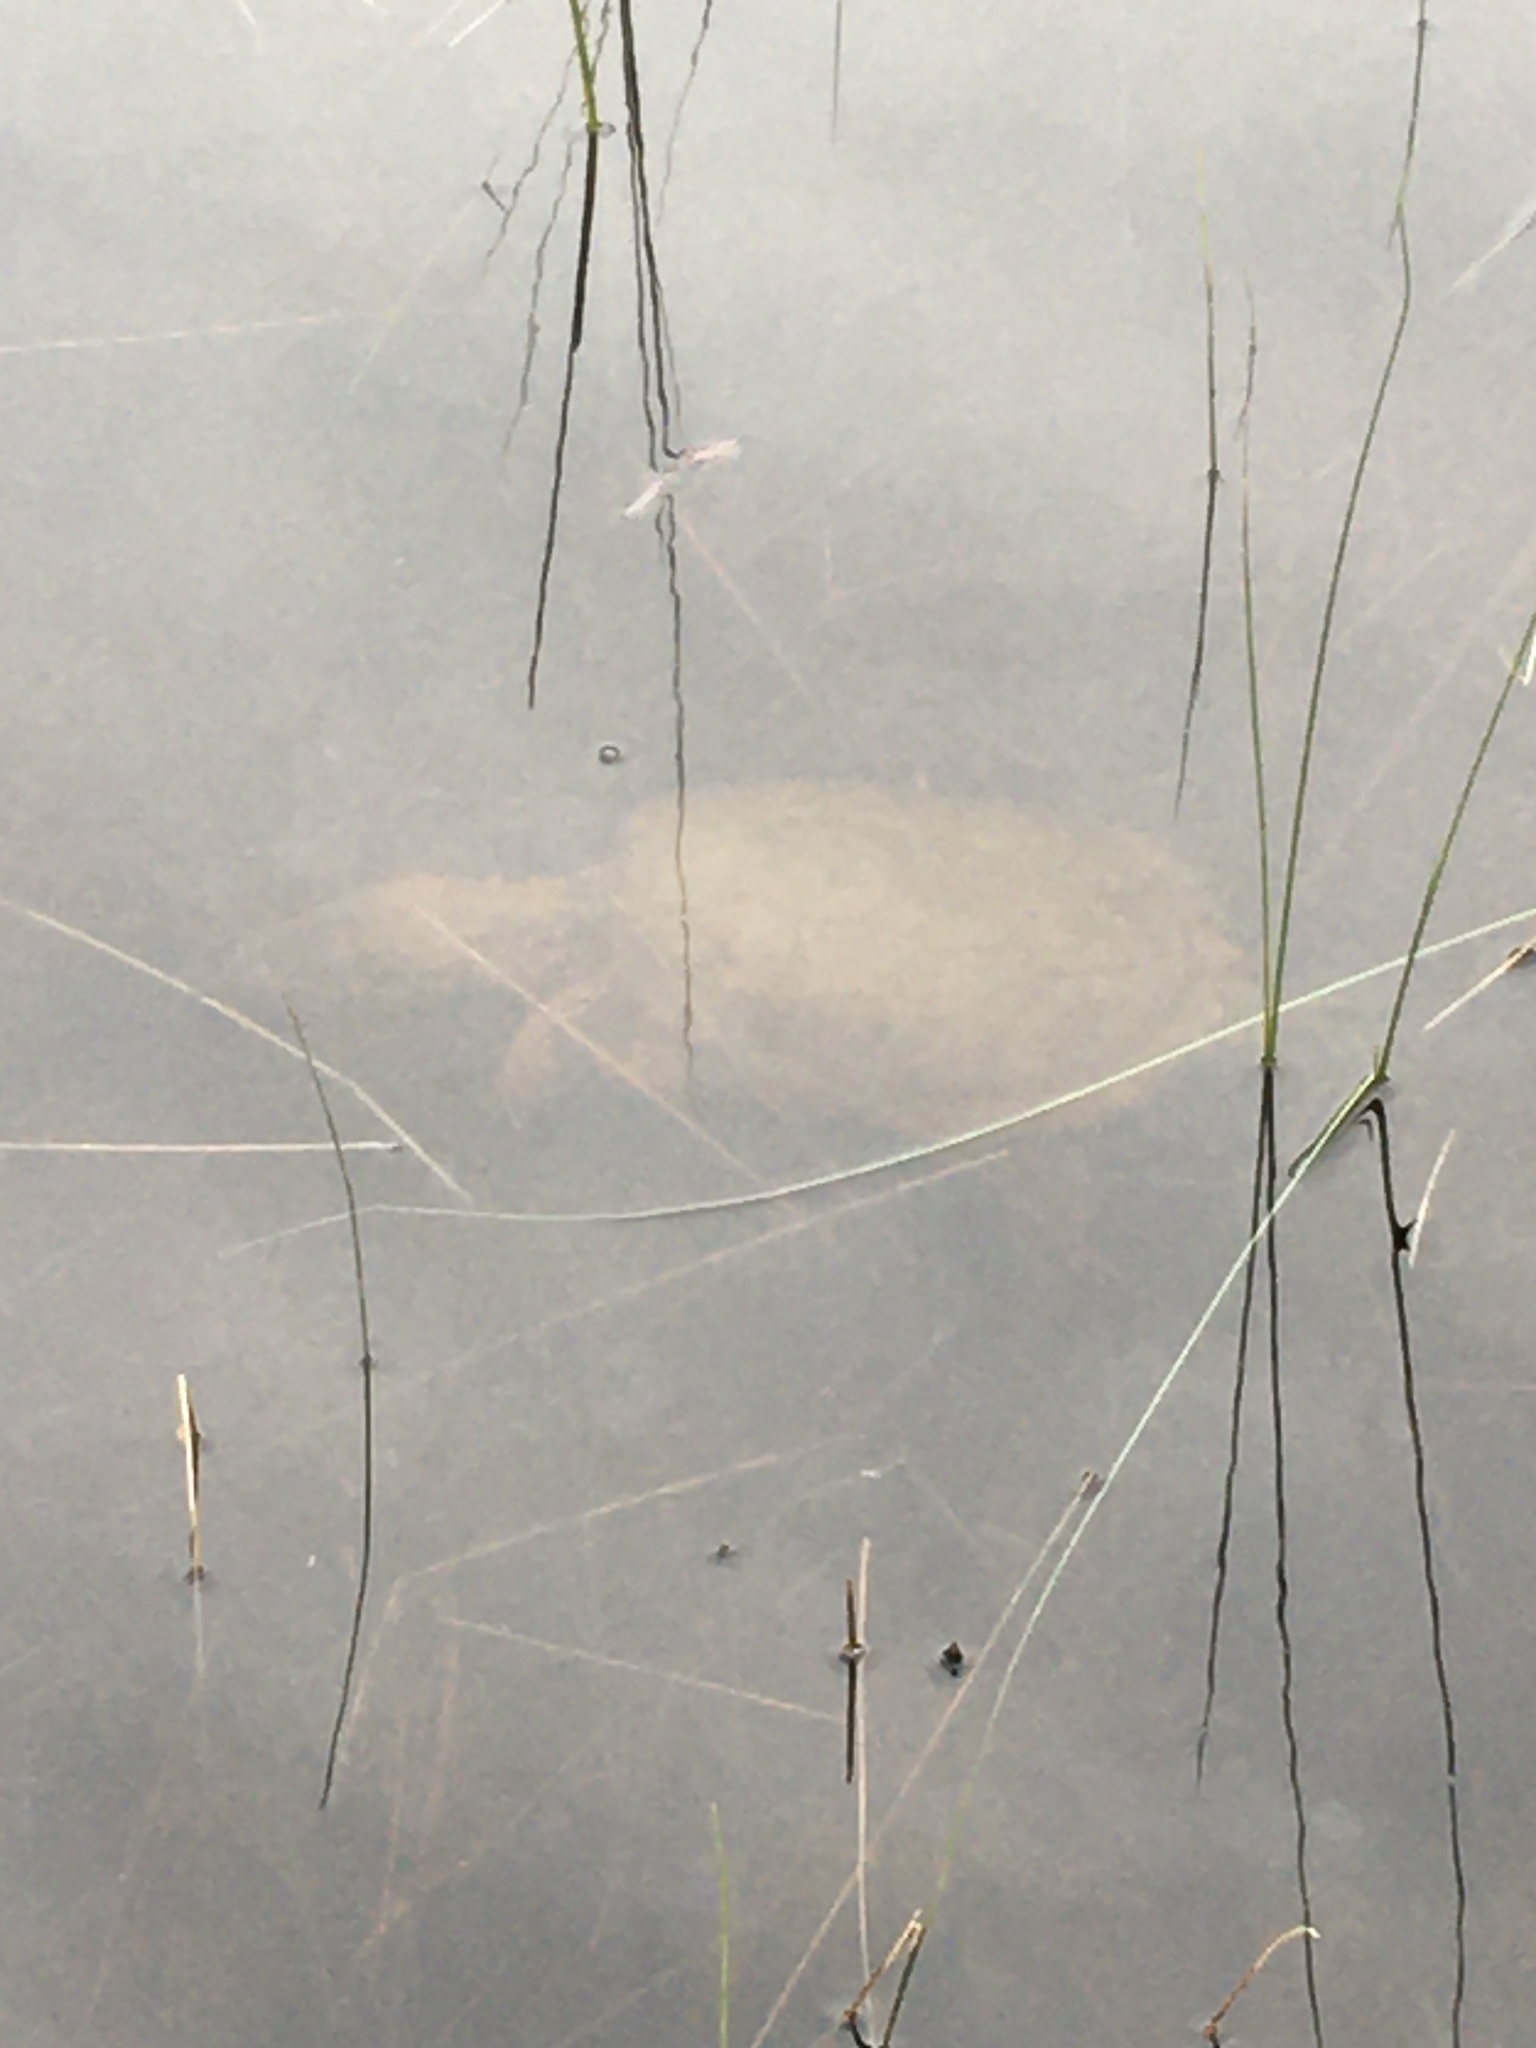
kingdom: Animalia
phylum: Chordata
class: Testudines
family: Chelydridae
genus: Chelydra
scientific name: Chelydra serpentina
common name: Common snapping turtle
